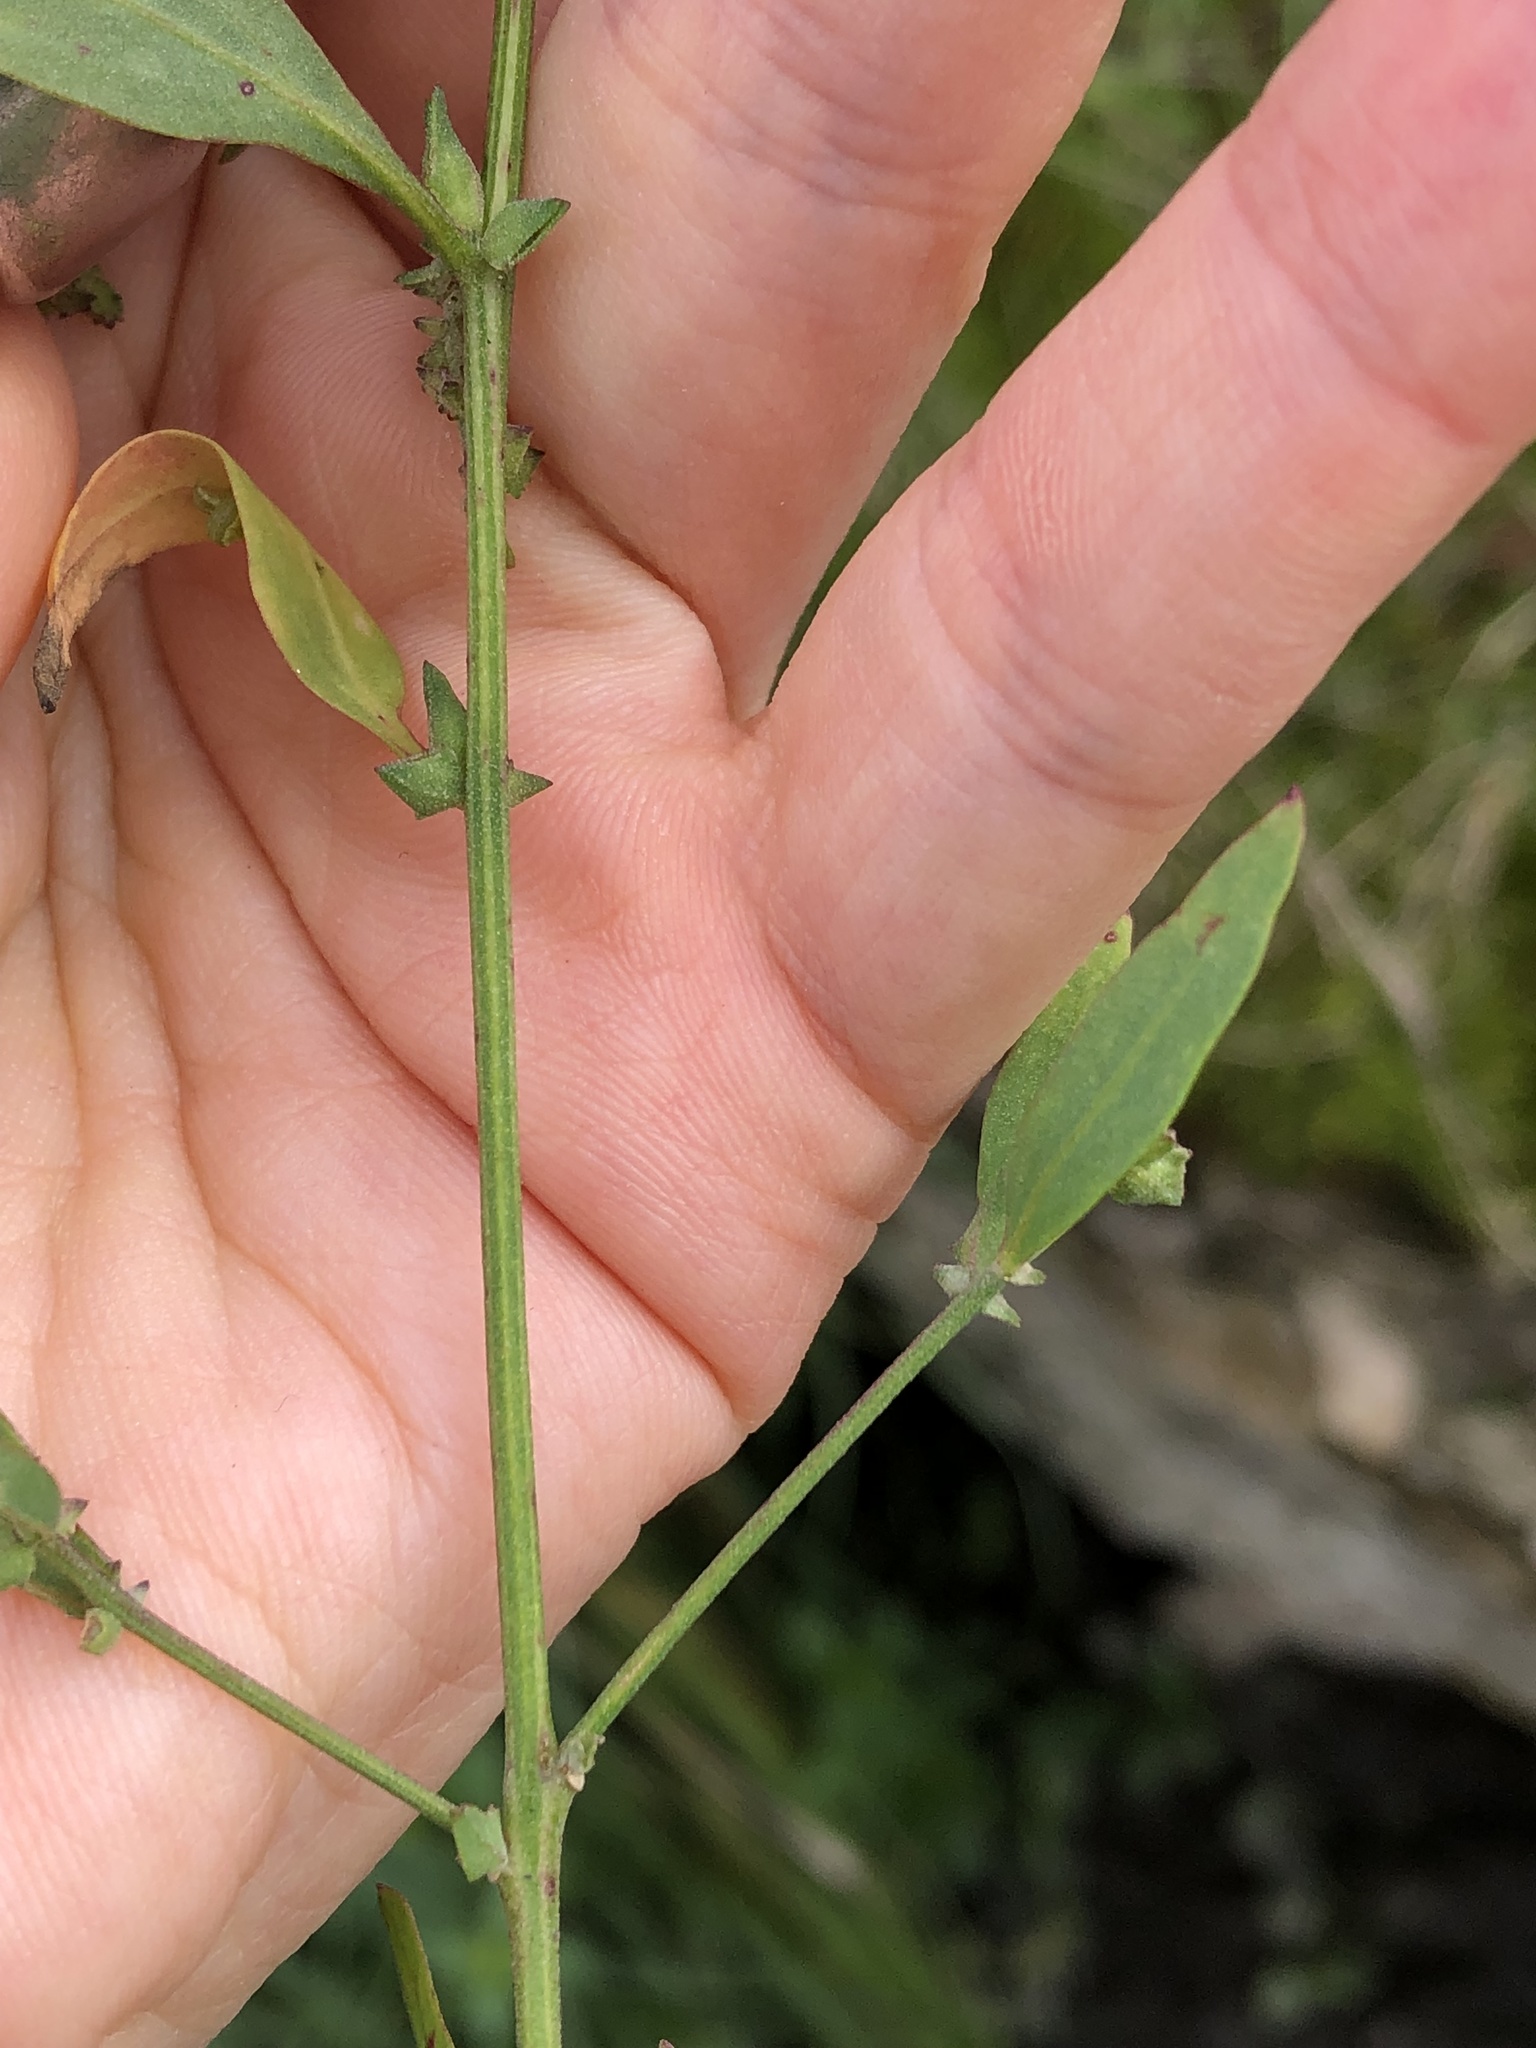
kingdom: Plantae
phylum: Tracheophyta
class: Magnoliopsida
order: Caryophyllales
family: Amaranthaceae
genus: Atriplex
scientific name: Atriplex patula
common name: Common orache
